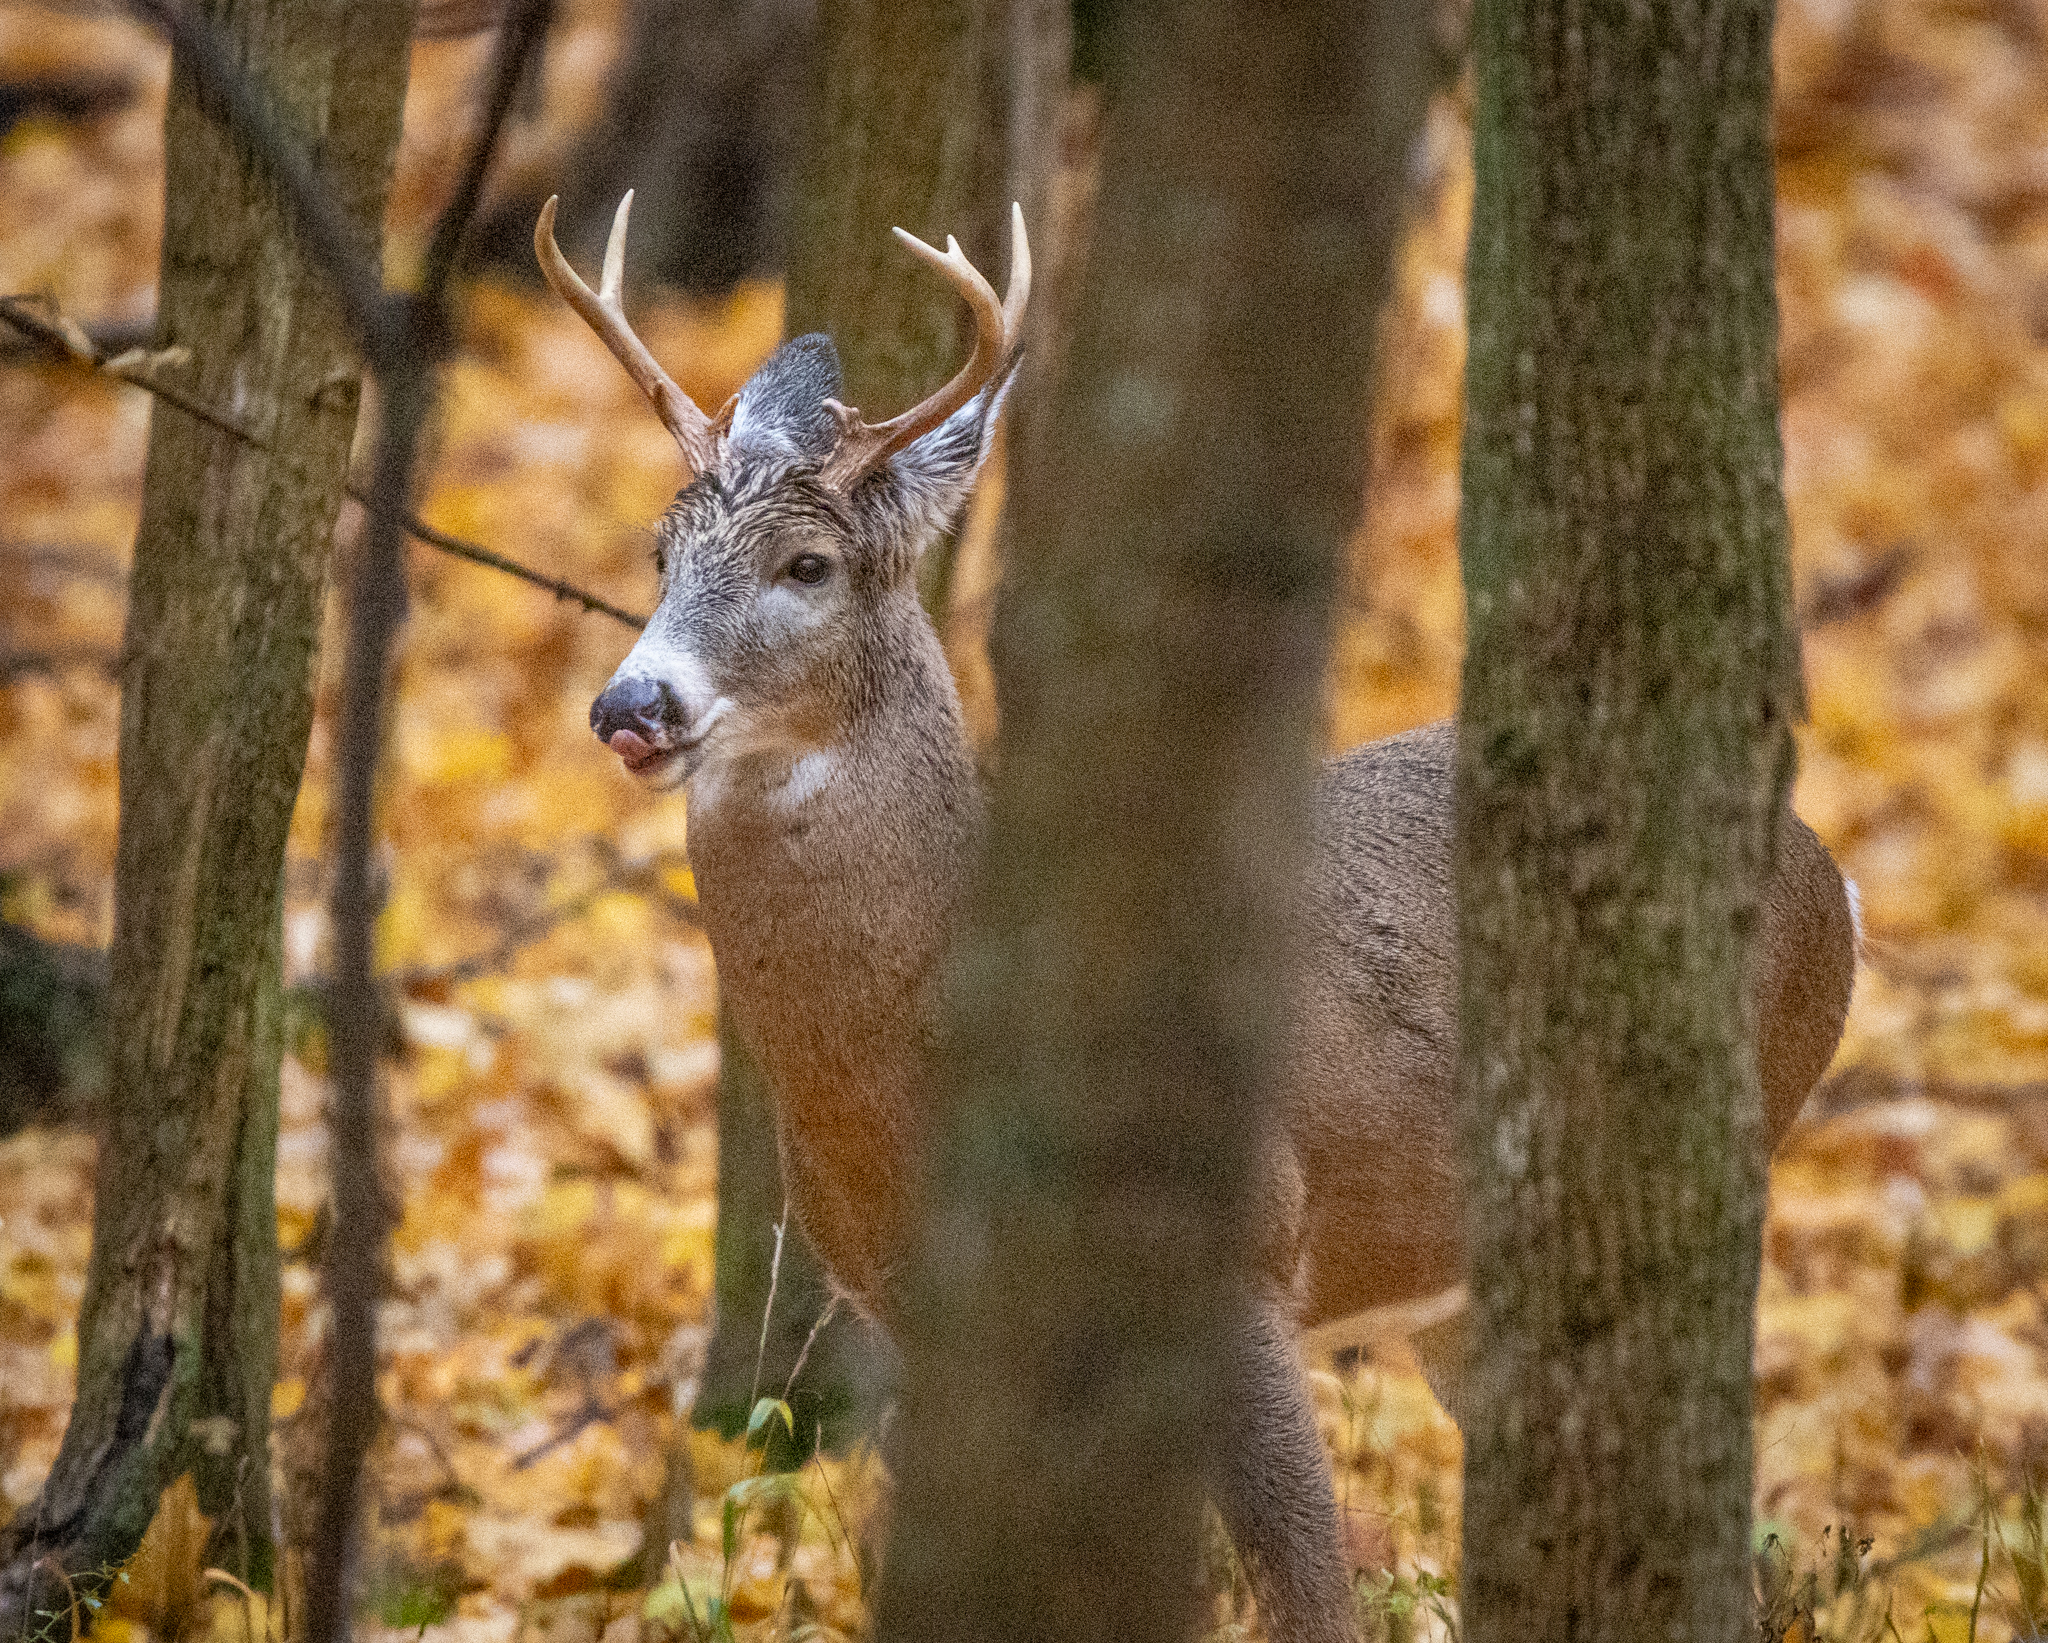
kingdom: Animalia
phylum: Chordata
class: Mammalia
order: Artiodactyla
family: Cervidae
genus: Odocoileus
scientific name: Odocoileus virginianus
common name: White-tailed deer
